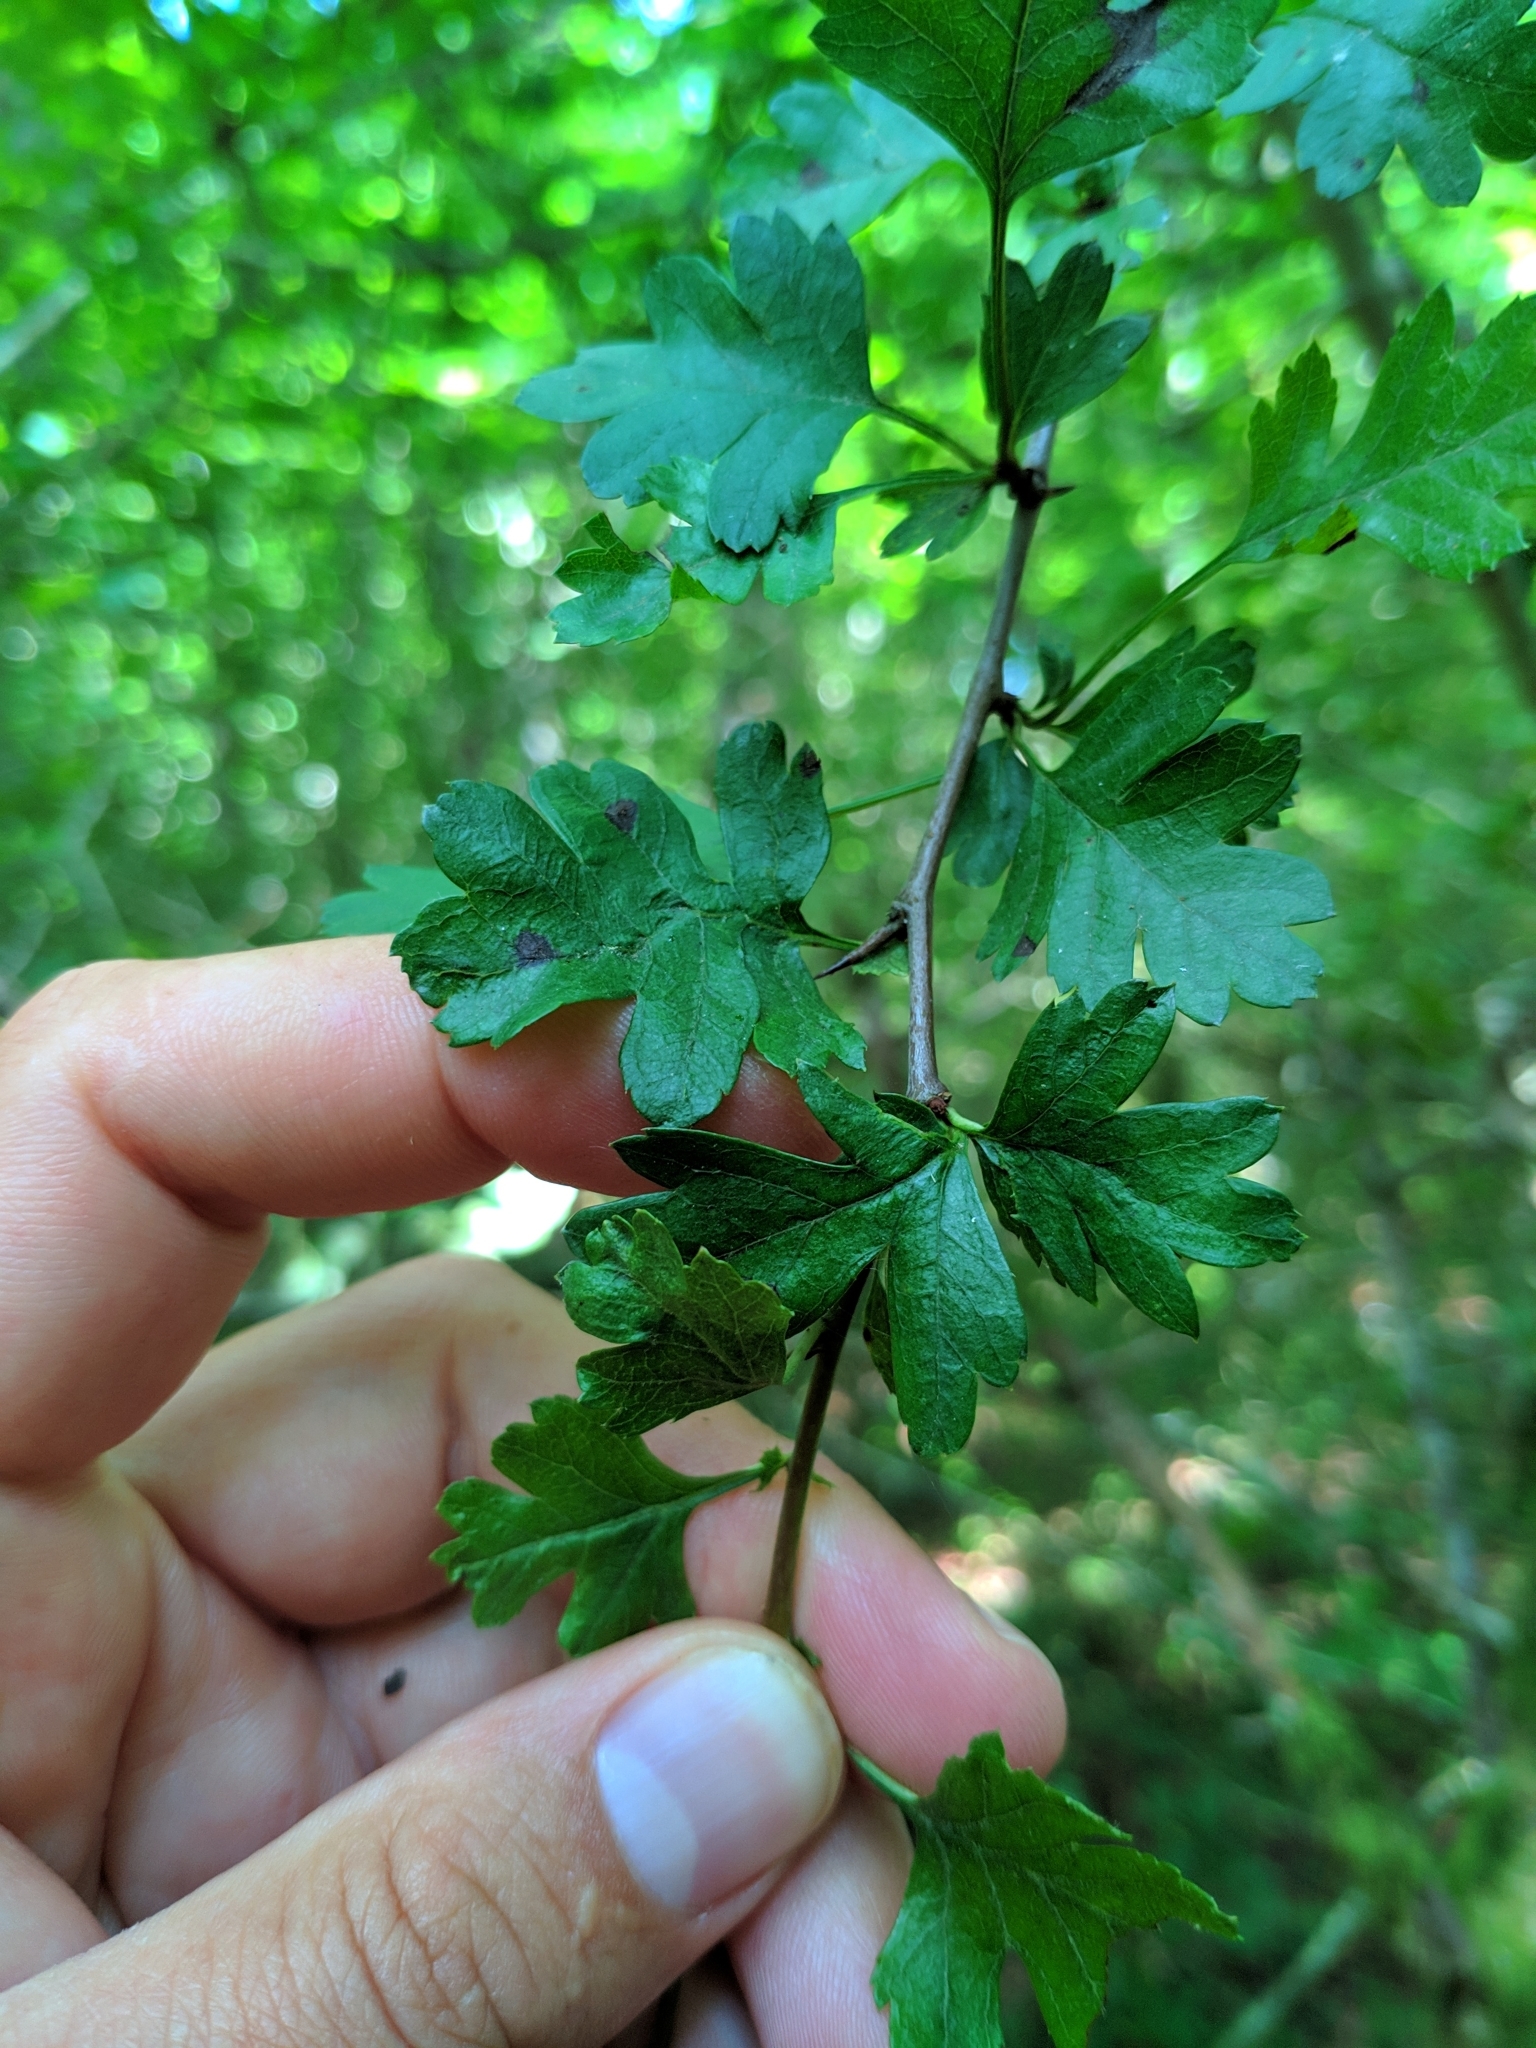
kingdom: Plantae
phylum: Tracheophyta
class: Magnoliopsida
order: Rosales
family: Rosaceae
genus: Crataegus
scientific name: Crataegus monogyna
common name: Hawthorn
